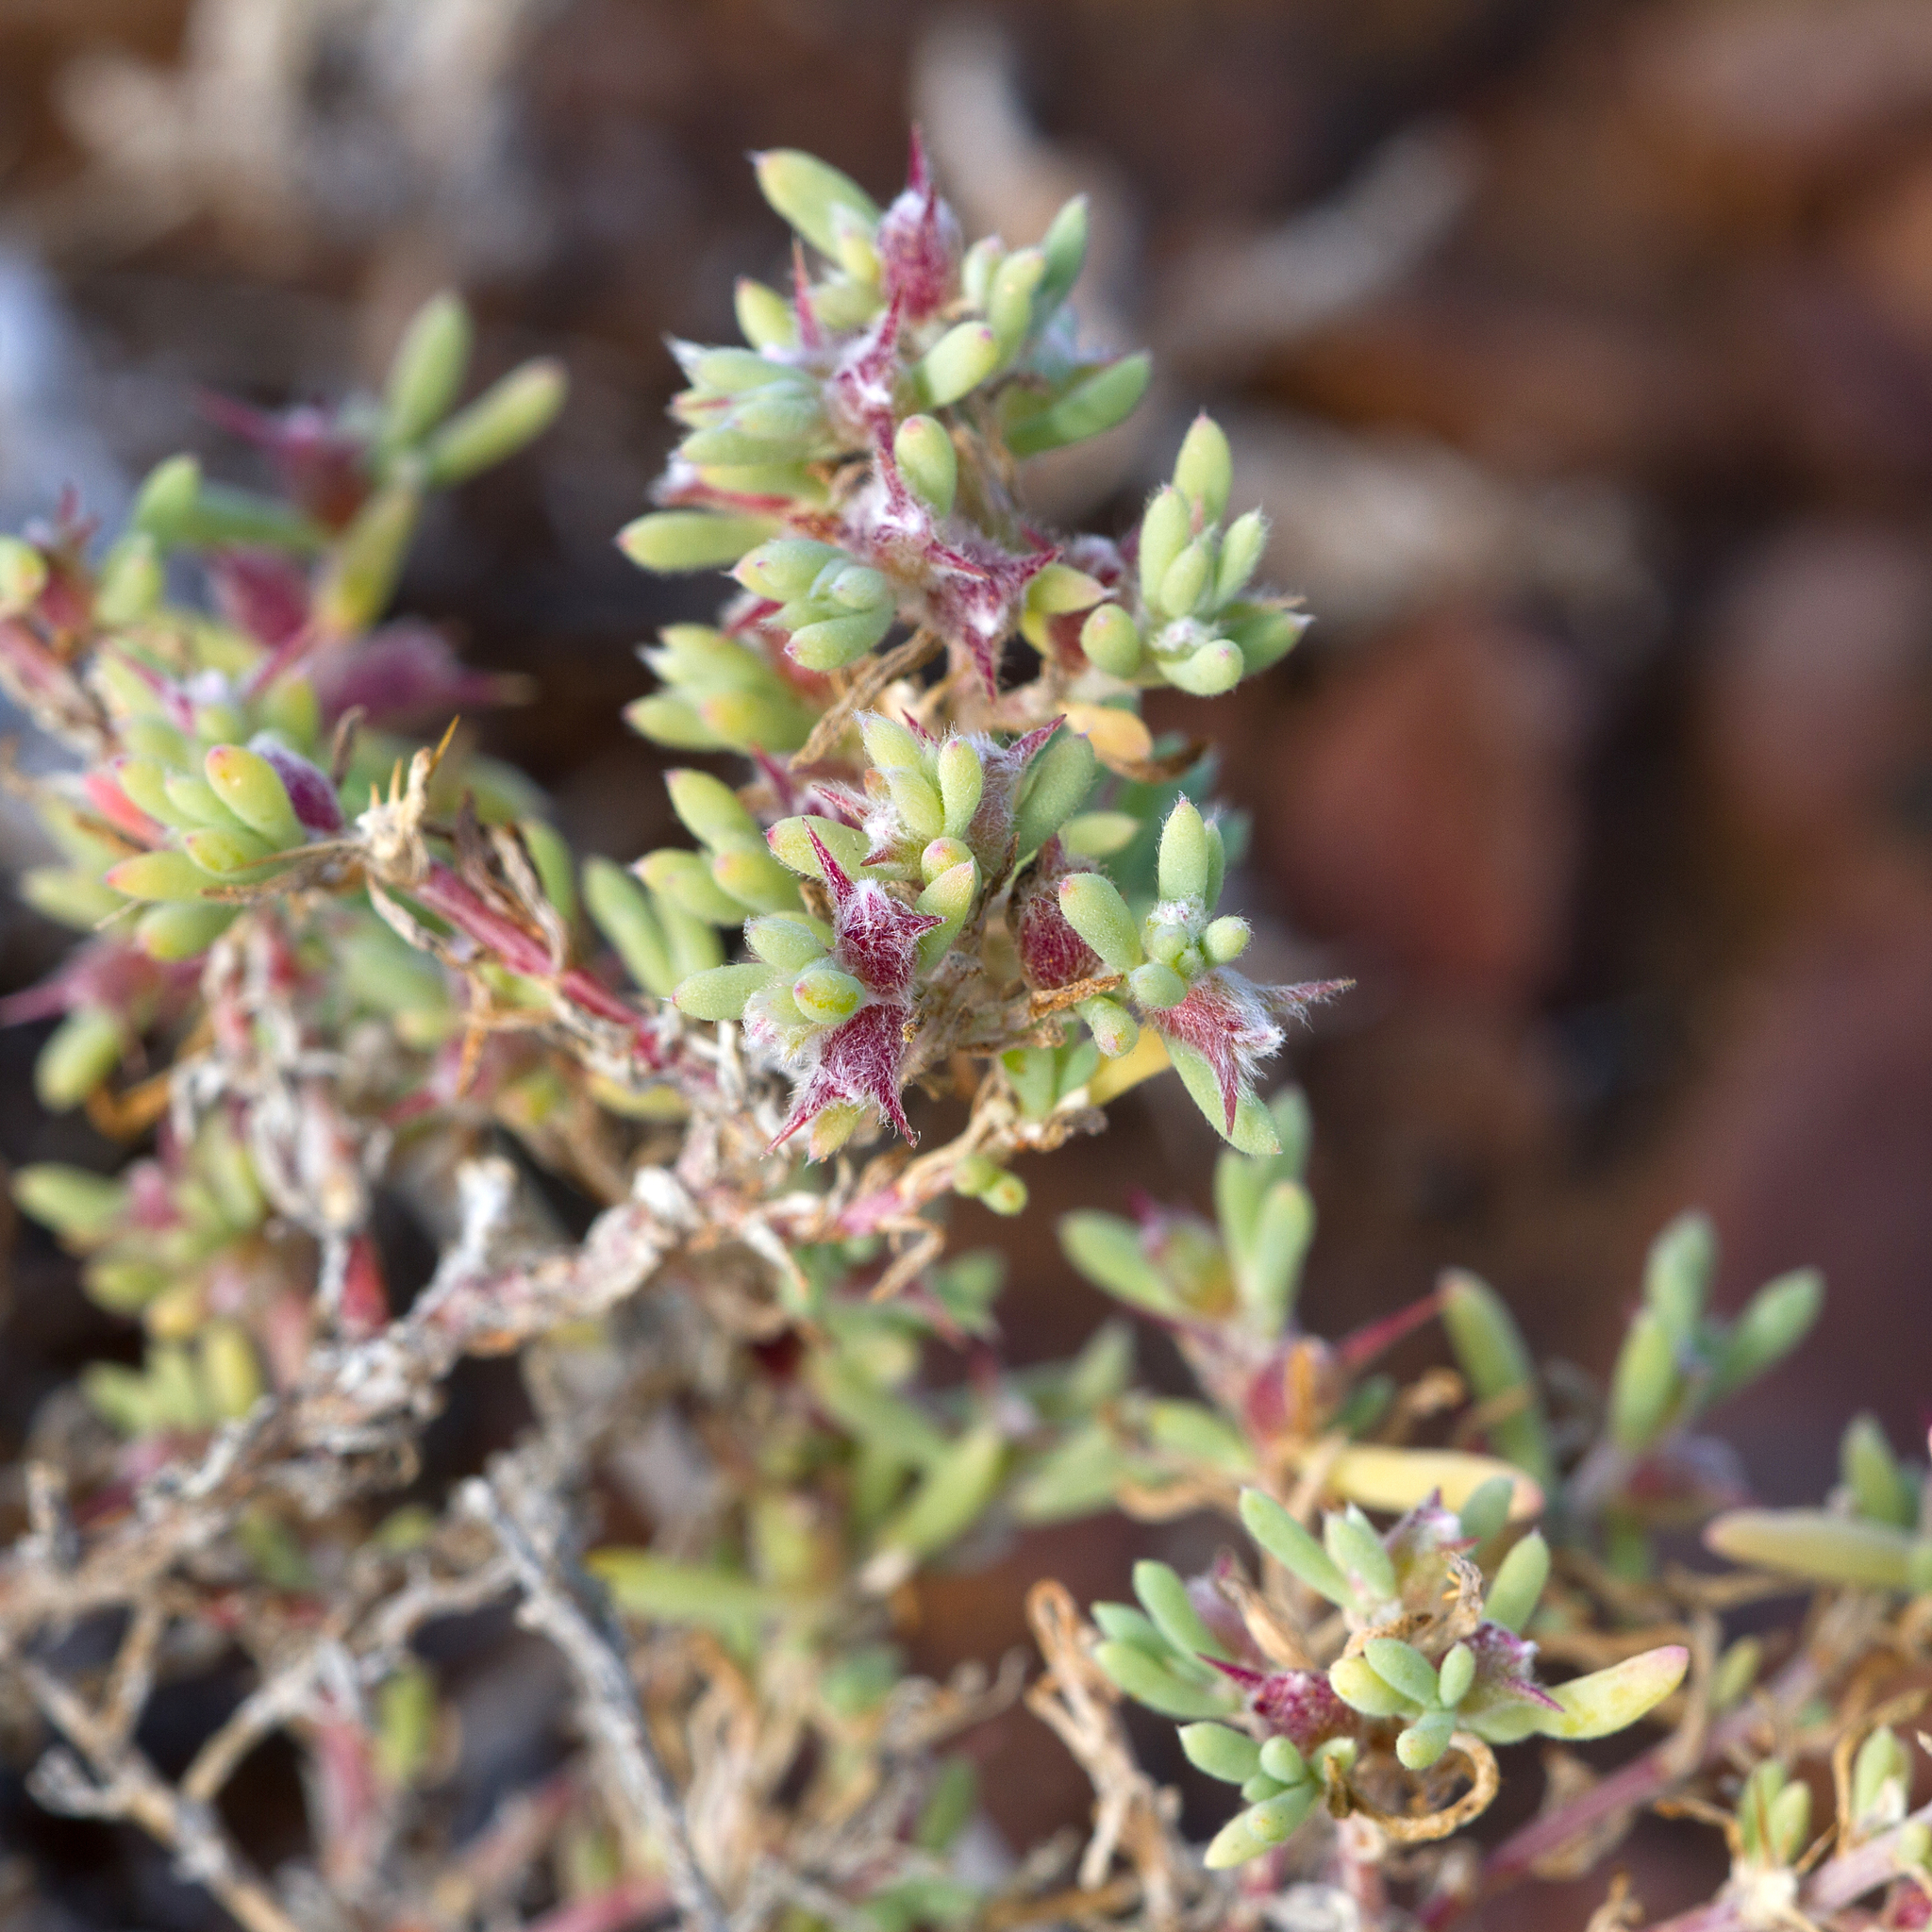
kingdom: Plantae
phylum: Tracheophyta
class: Magnoliopsida
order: Caryophyllales
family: Amaranthaceae
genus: Sclerolaena
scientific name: Sclerolaena ventricosa
